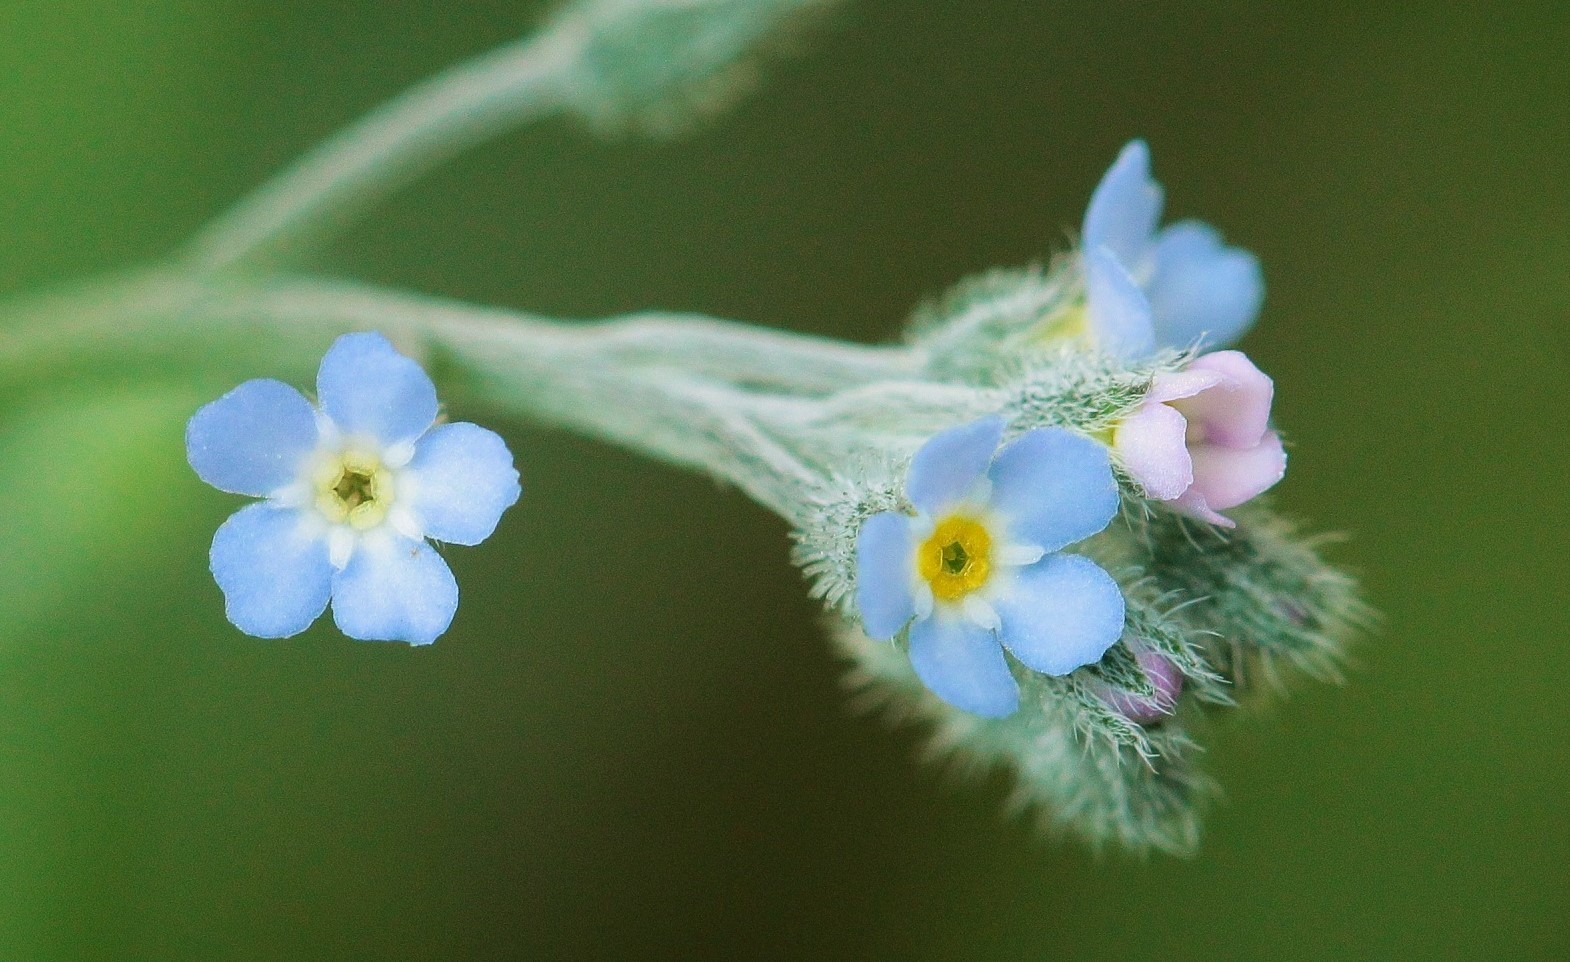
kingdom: Plantae
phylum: Tracheophyta
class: Magnoliopsida
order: Boraginales
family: Boraginaceae
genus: Myosotis
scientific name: Myosotis arvensis
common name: Field forget-me-not
